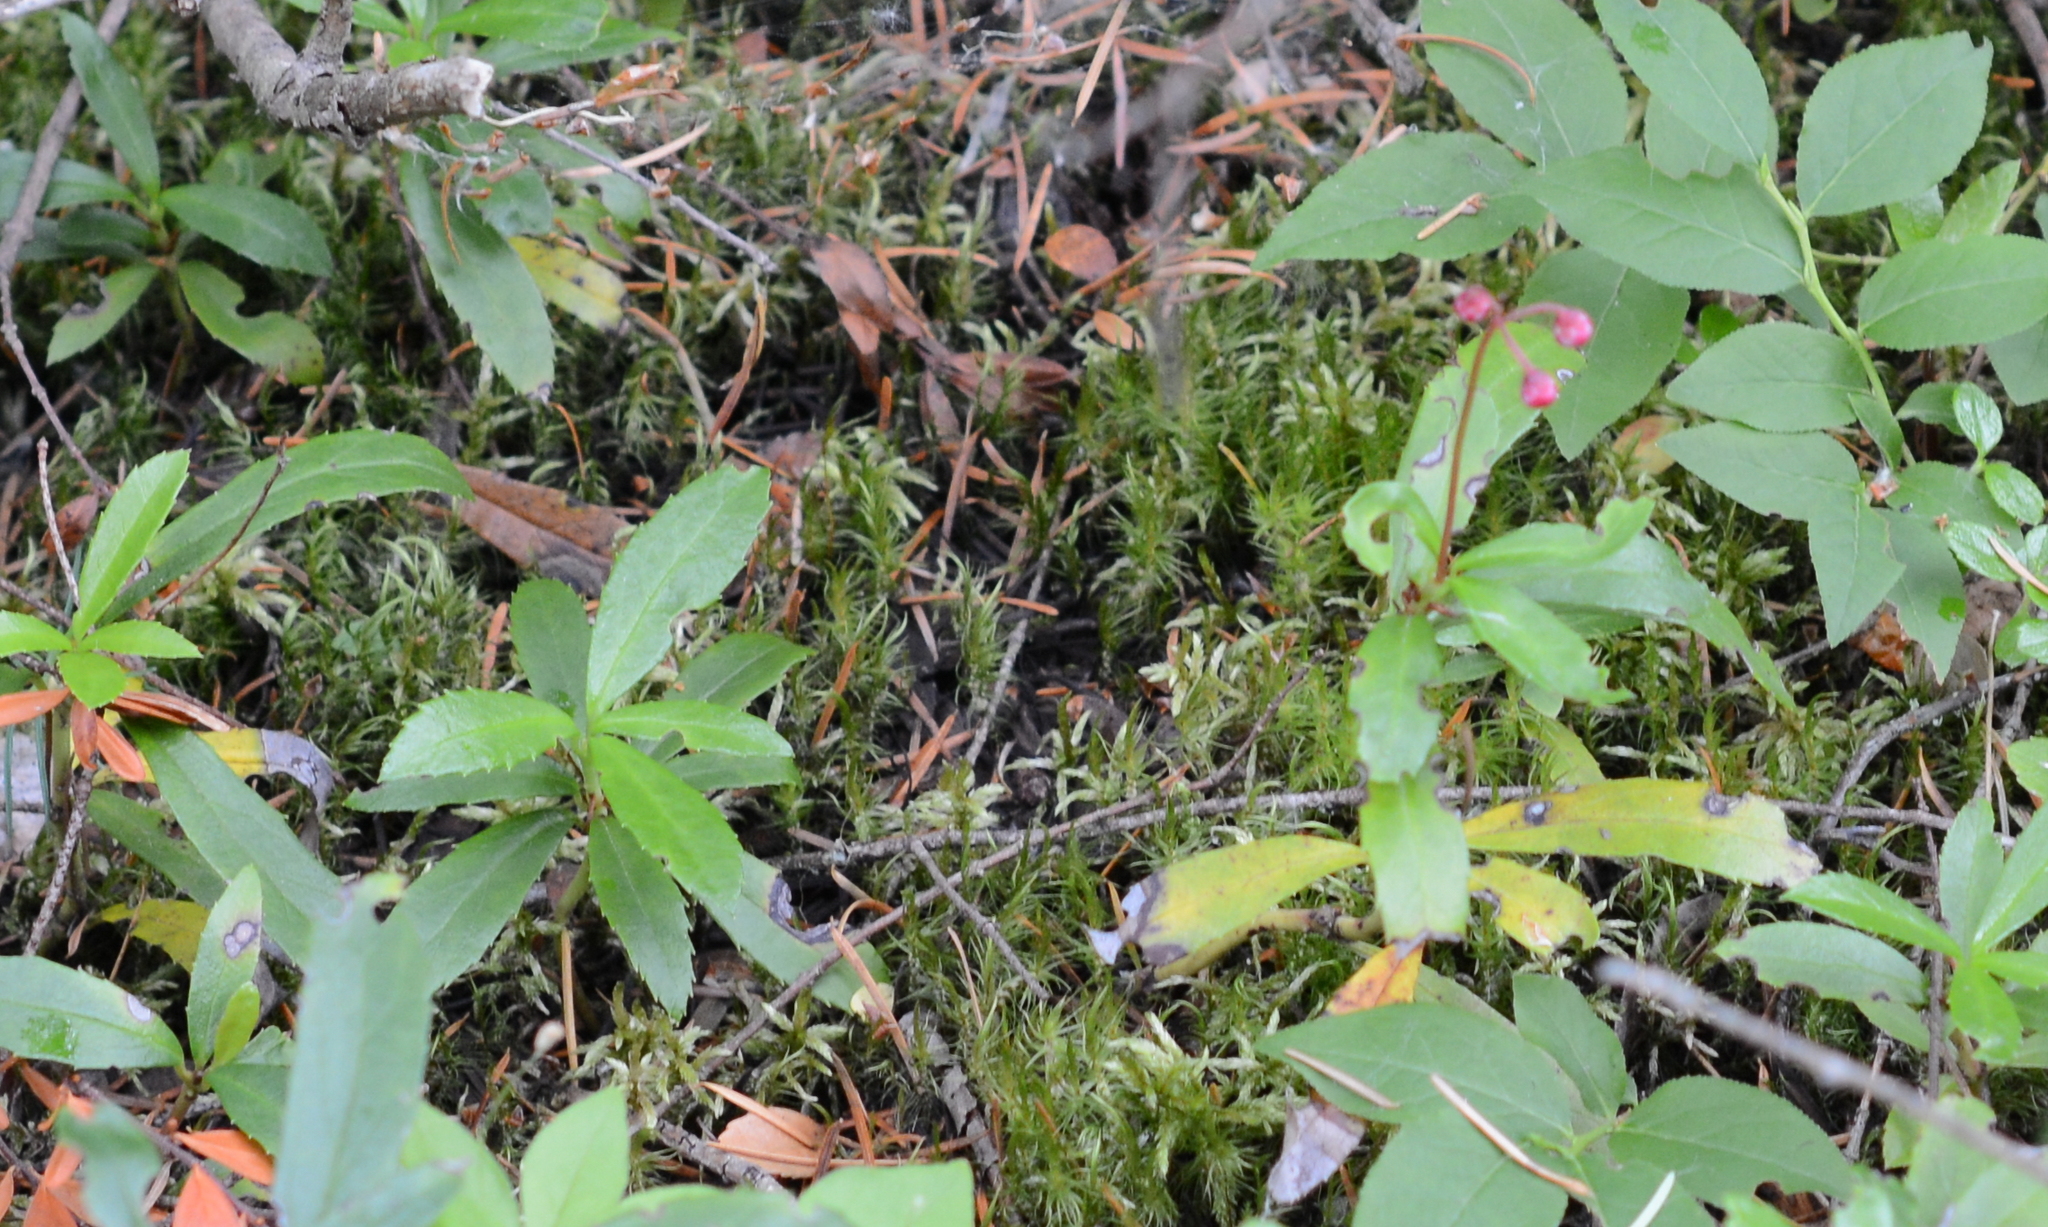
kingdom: Plantae
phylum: Tracheophyta
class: Magnoliopsida
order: Ericales
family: Ericaceae
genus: Chimaphila
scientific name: Chimaphila umbellata
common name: Pipsissewa
